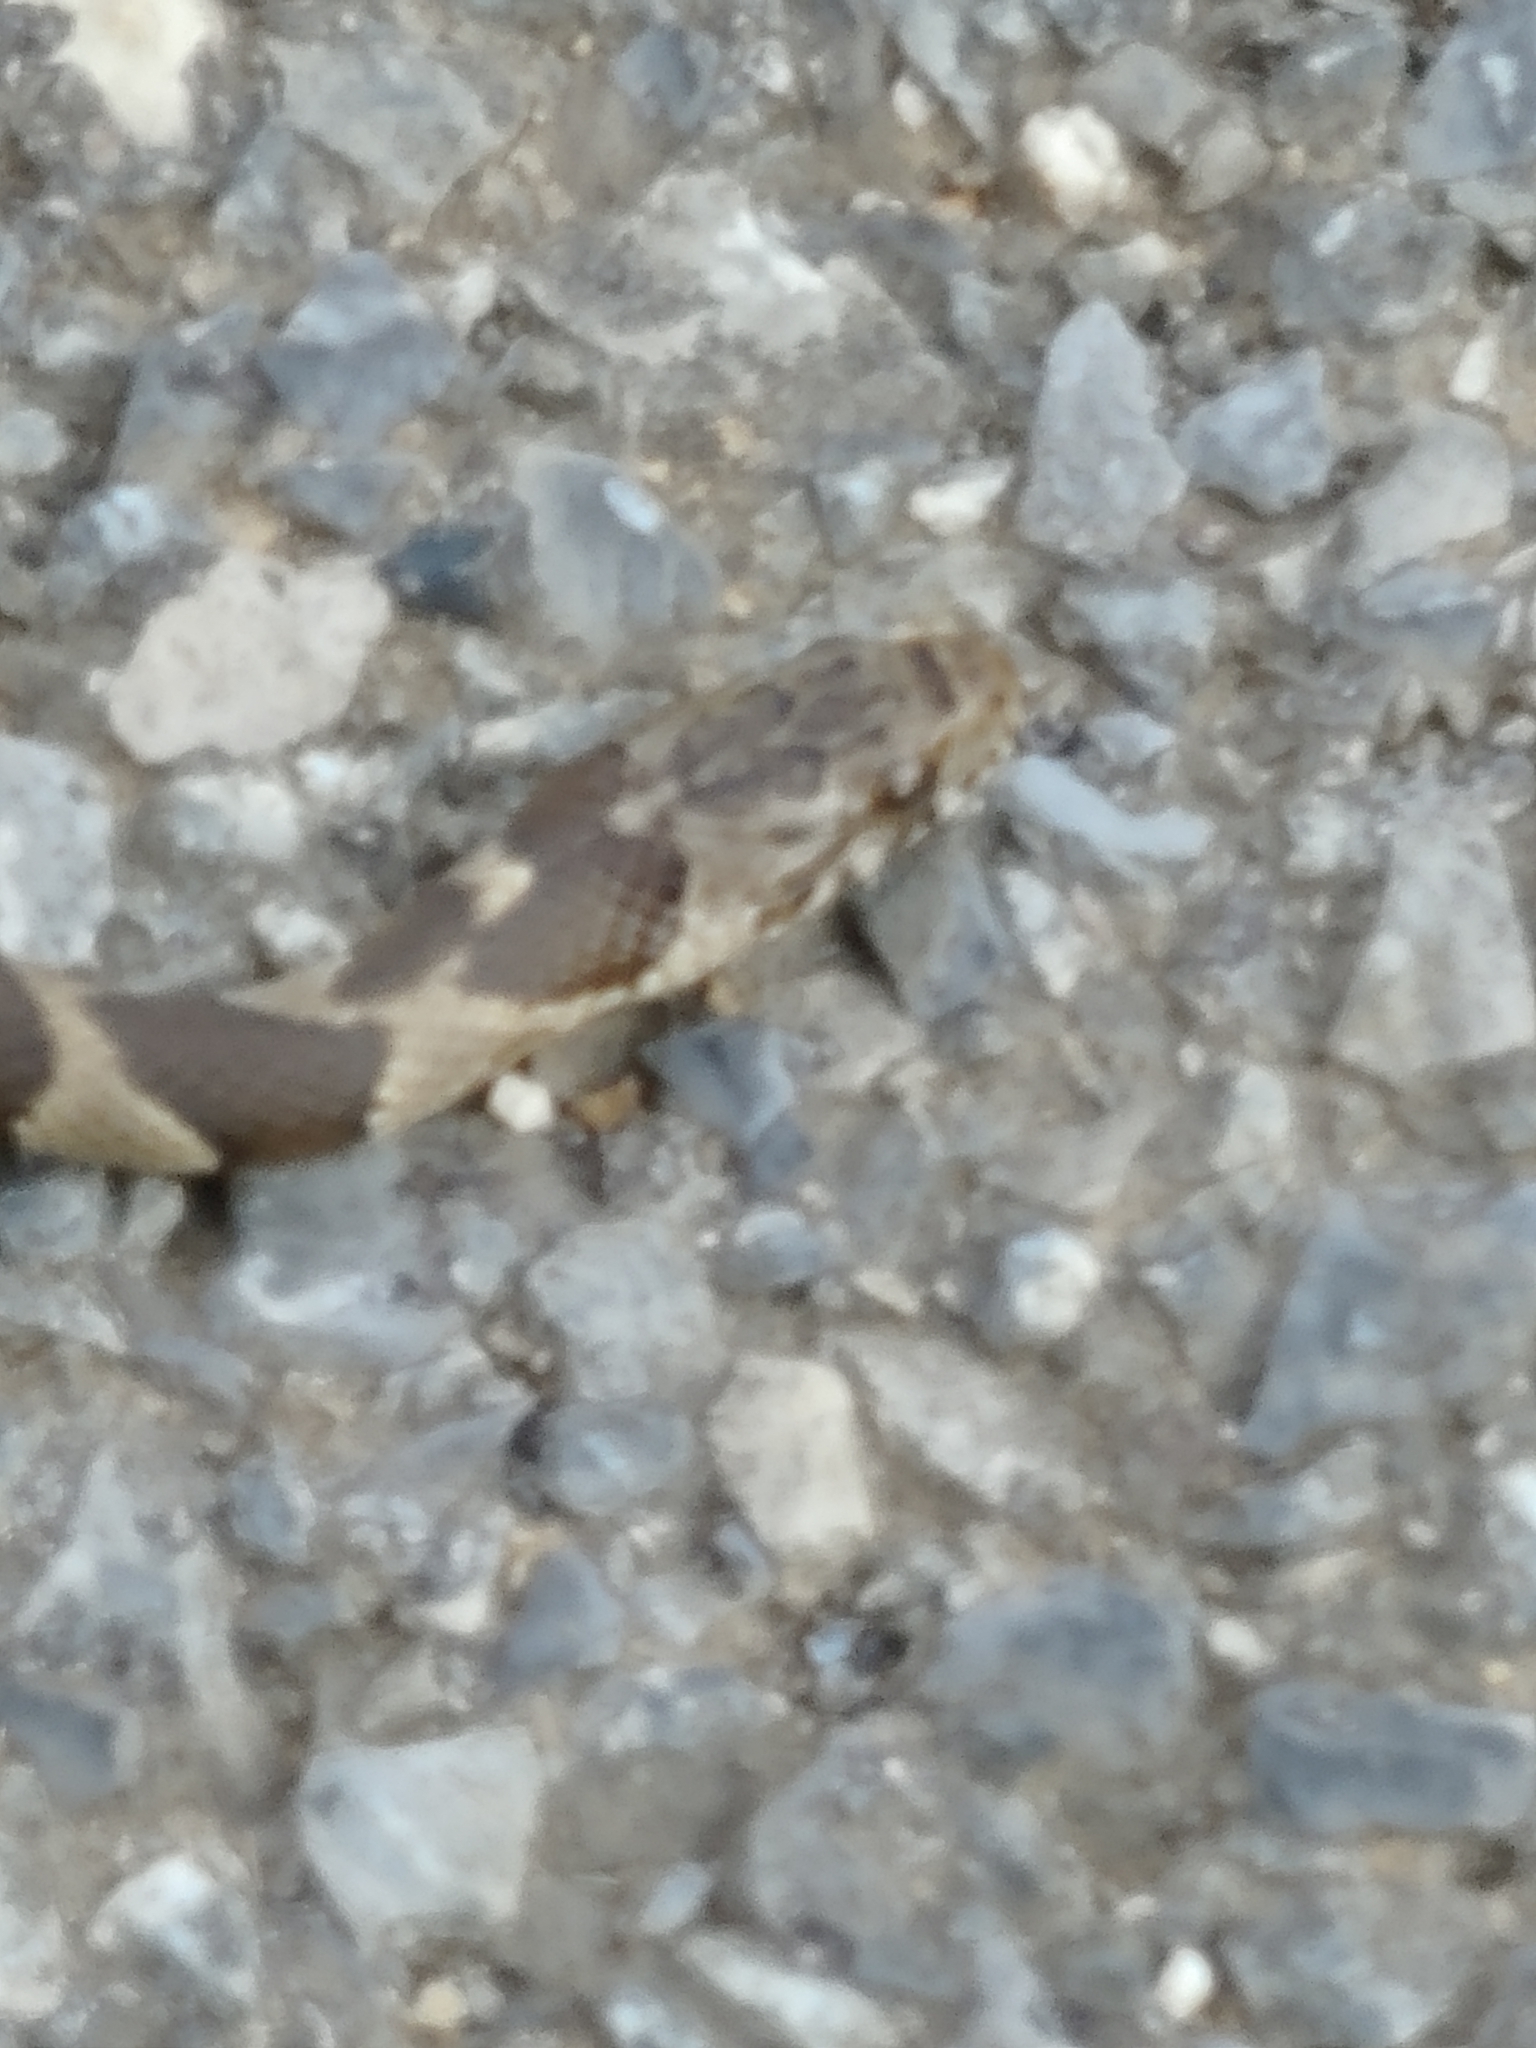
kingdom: Animalia
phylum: Chordata
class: Squamata
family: Colubridae
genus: Nerodia
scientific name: Nerodia sipedon
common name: Northern water snake
